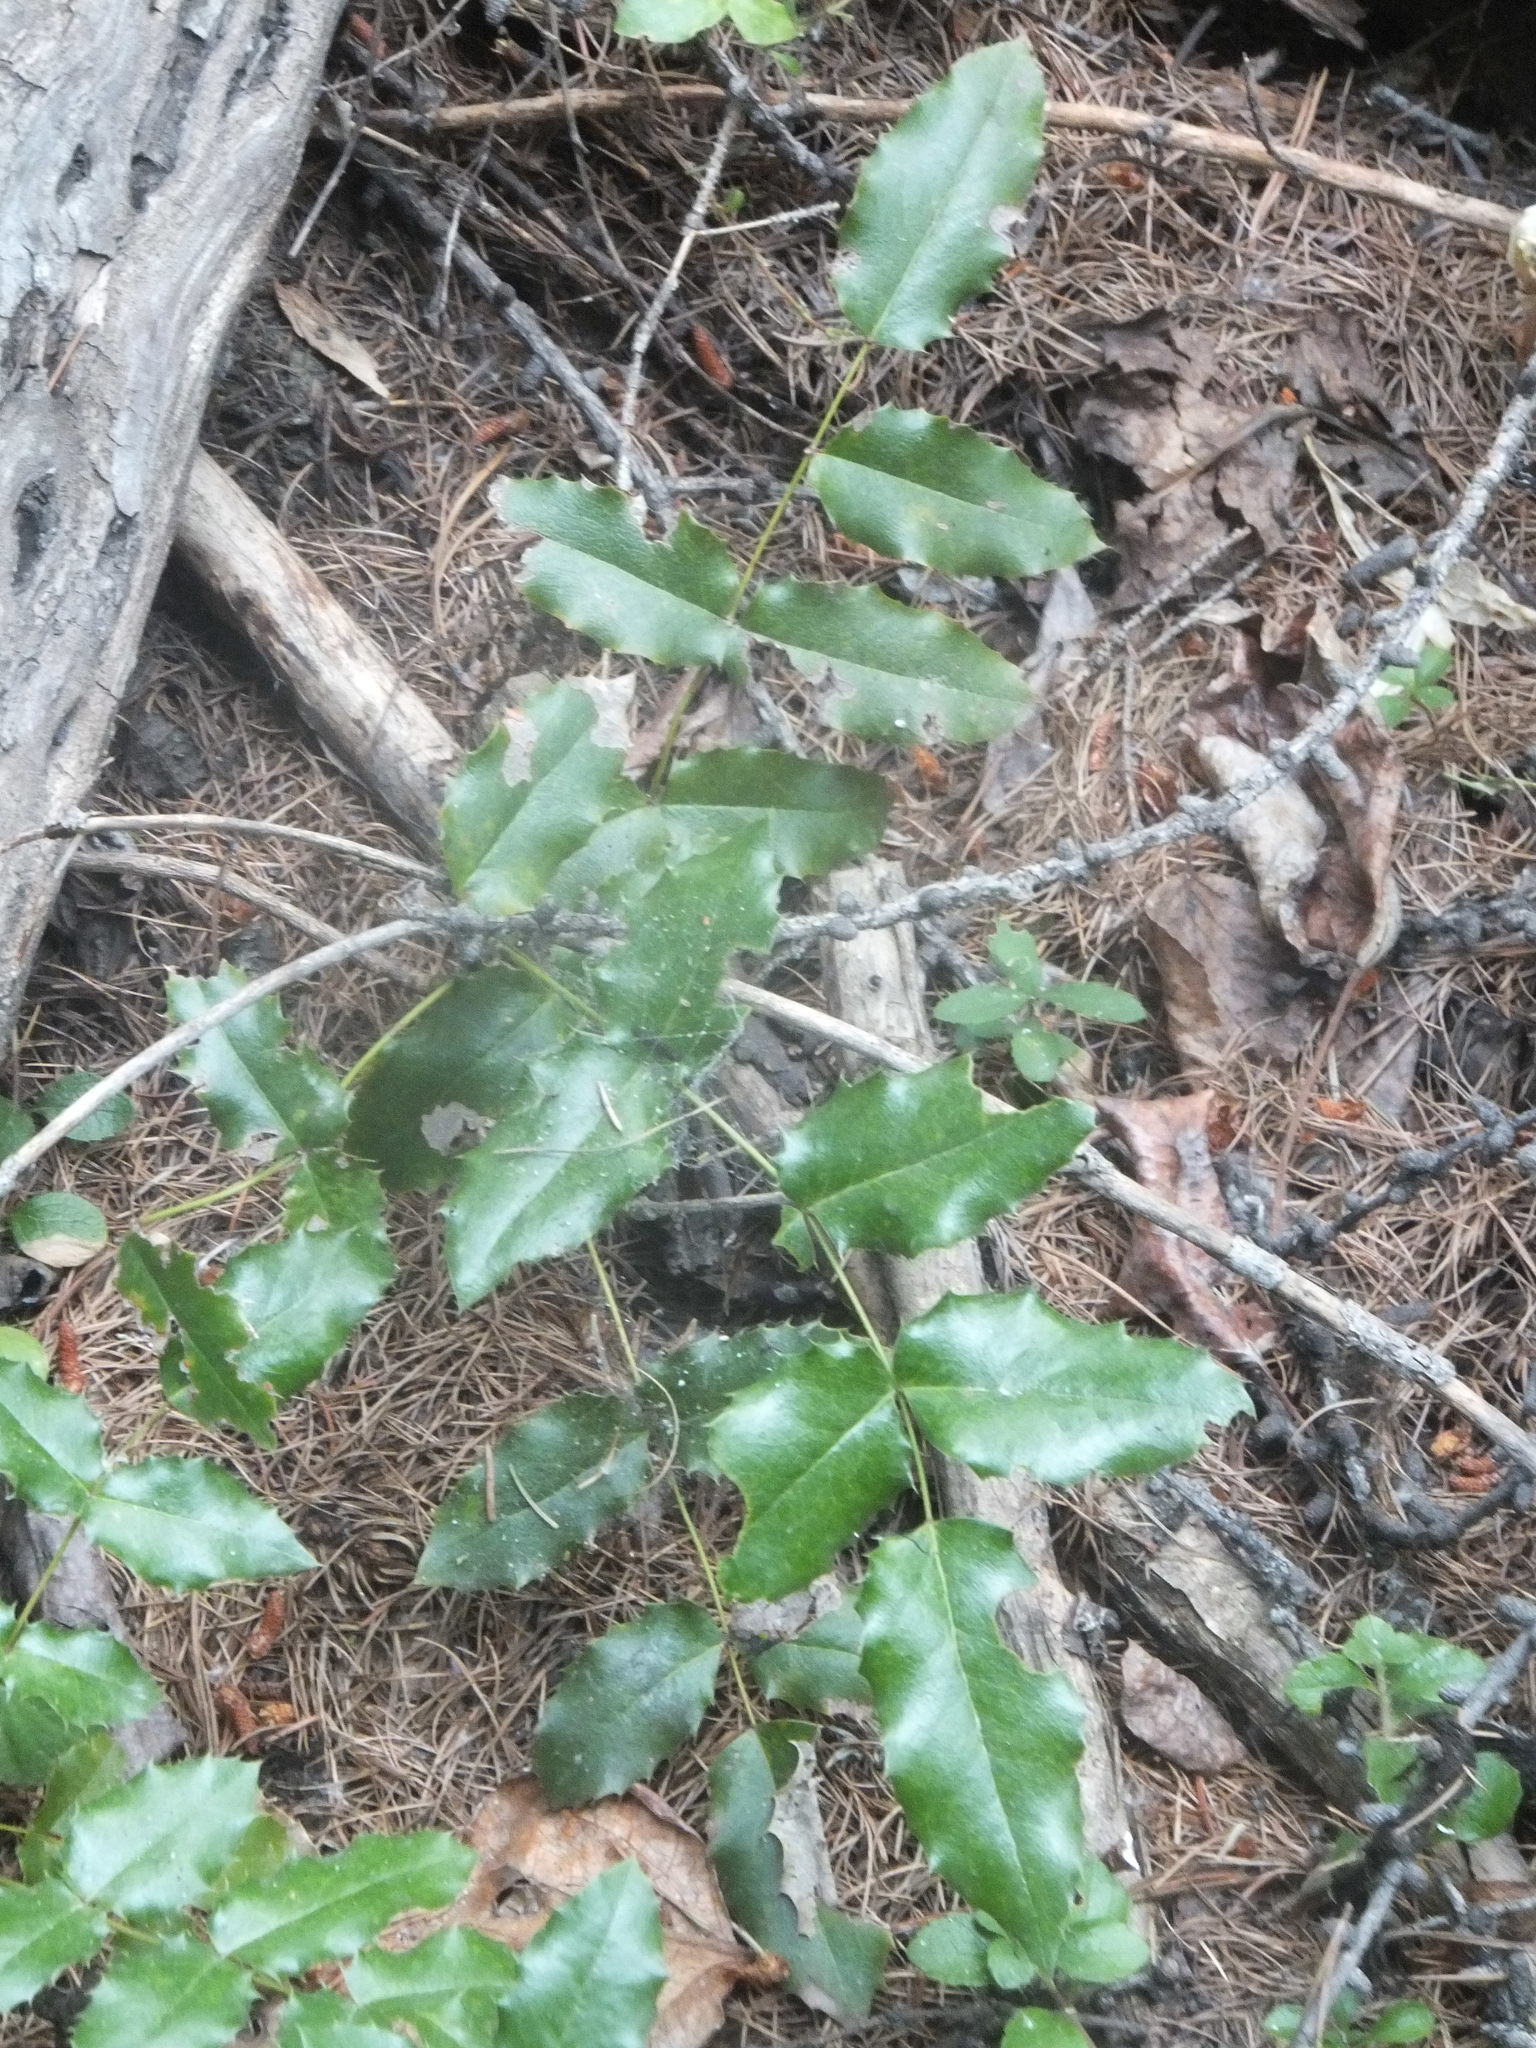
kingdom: Plantae
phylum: Tracheophyta
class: Magnoliopsida
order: Ranunculales
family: Berberidaceae
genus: Mahonia
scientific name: Mahonia aquifolium
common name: Oregon-grape
